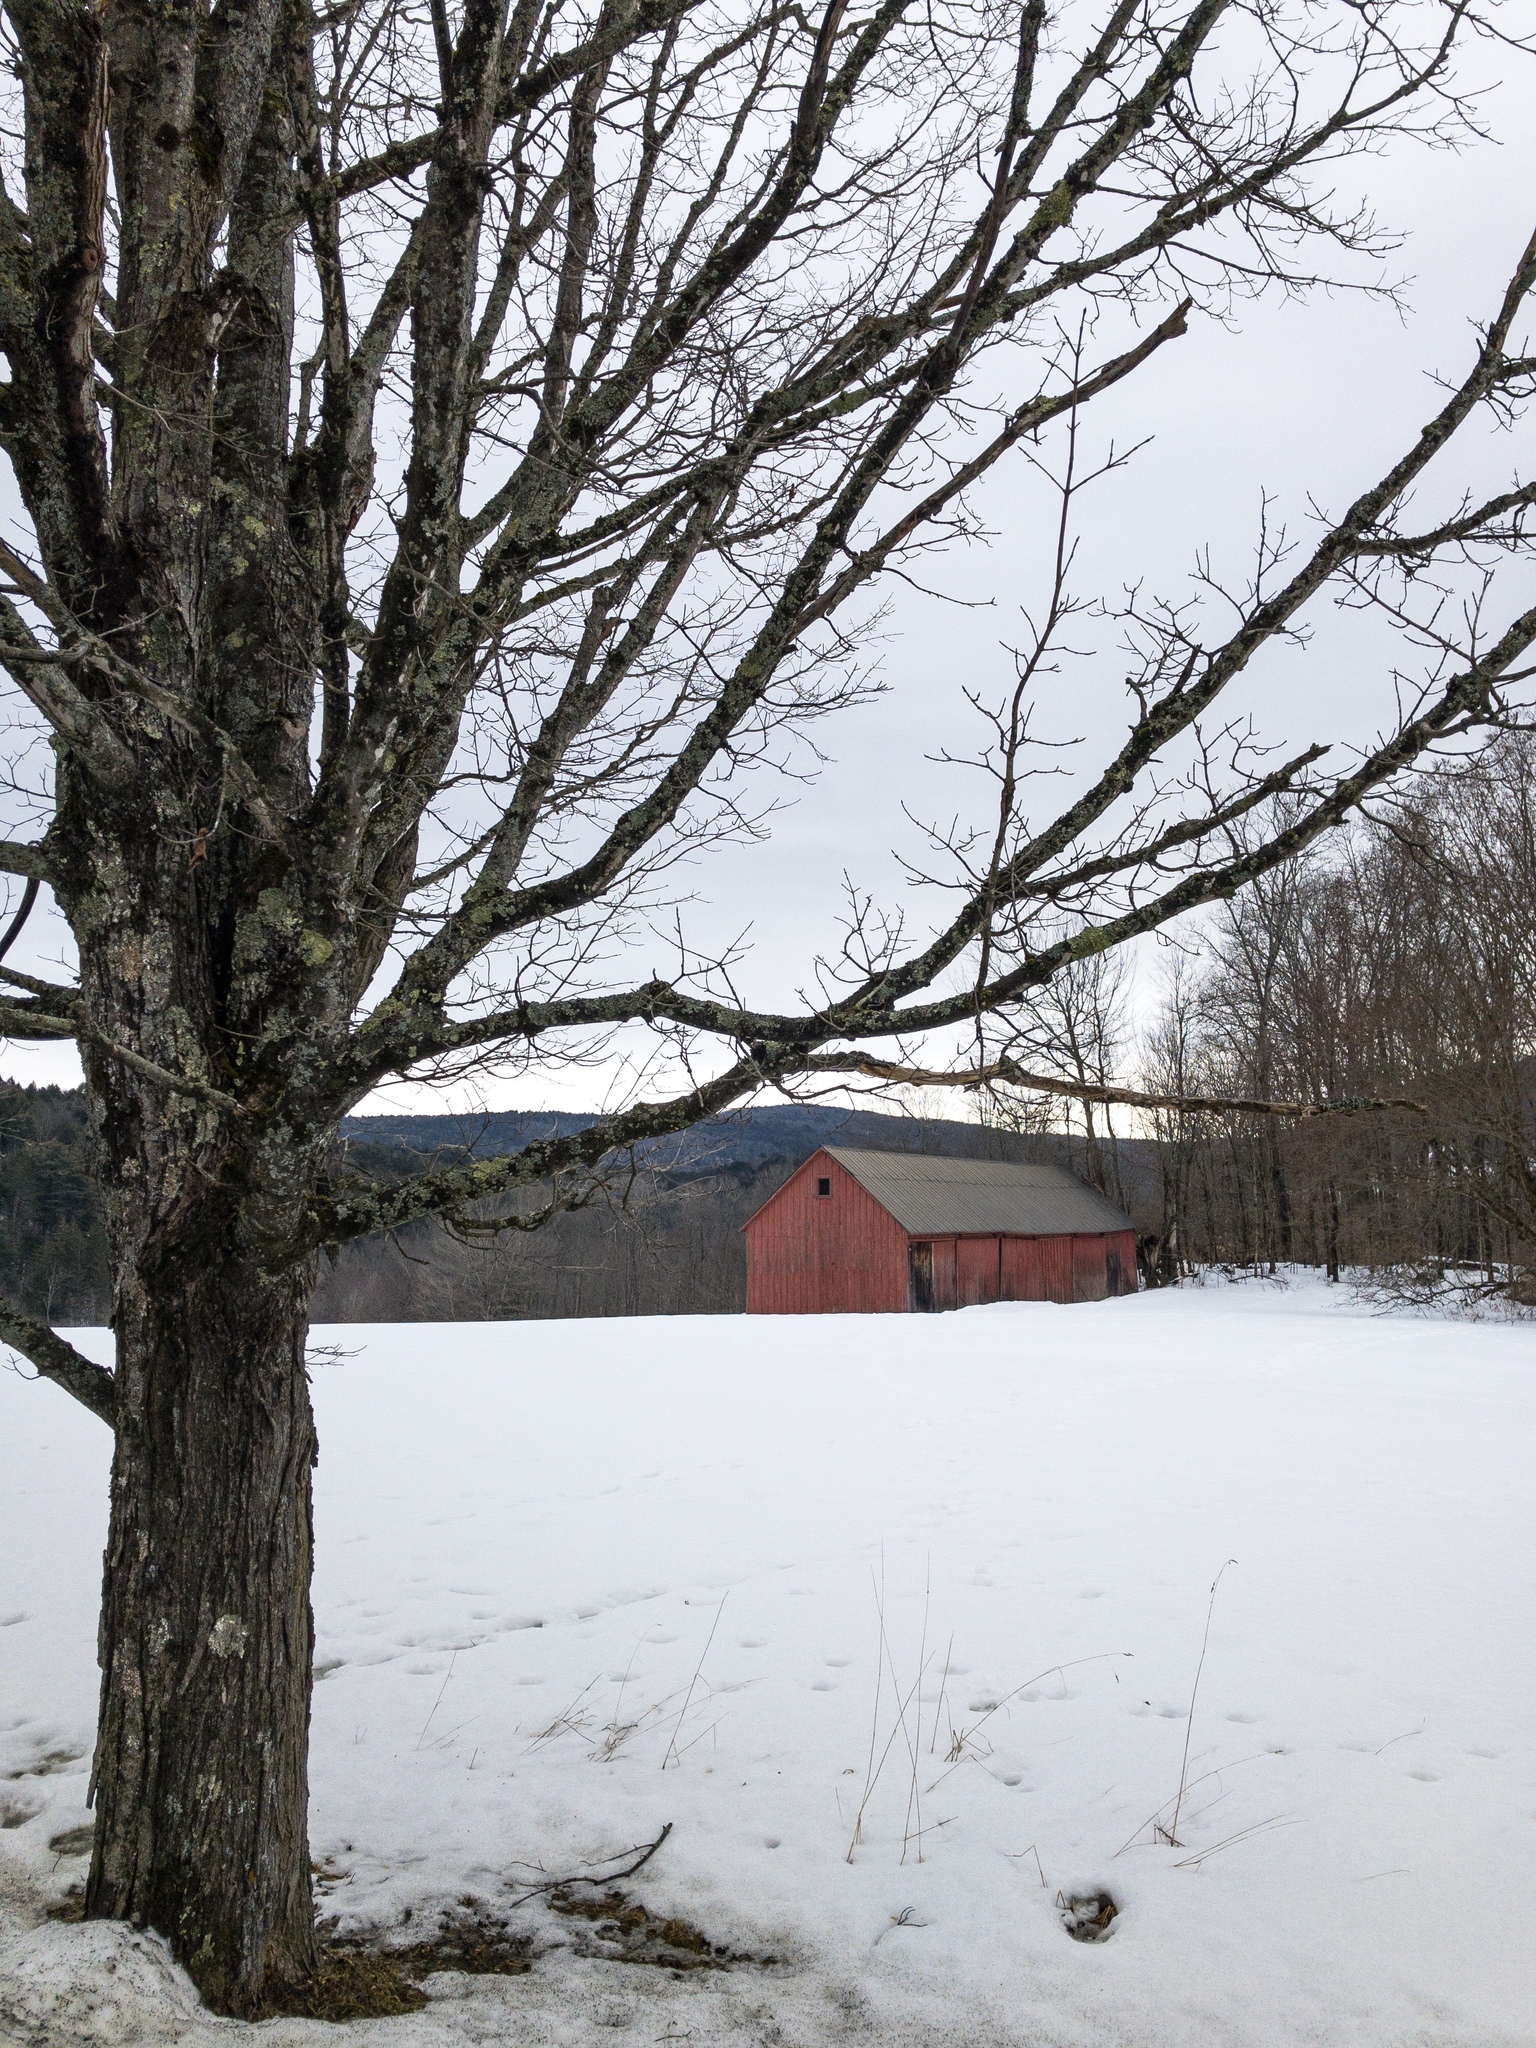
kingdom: Plantae
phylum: Tracheophyta
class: Magnoliopsida
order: Sapindales
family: Sapindaceae
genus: Acer
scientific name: Acer saccharum
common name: Sugar maple
